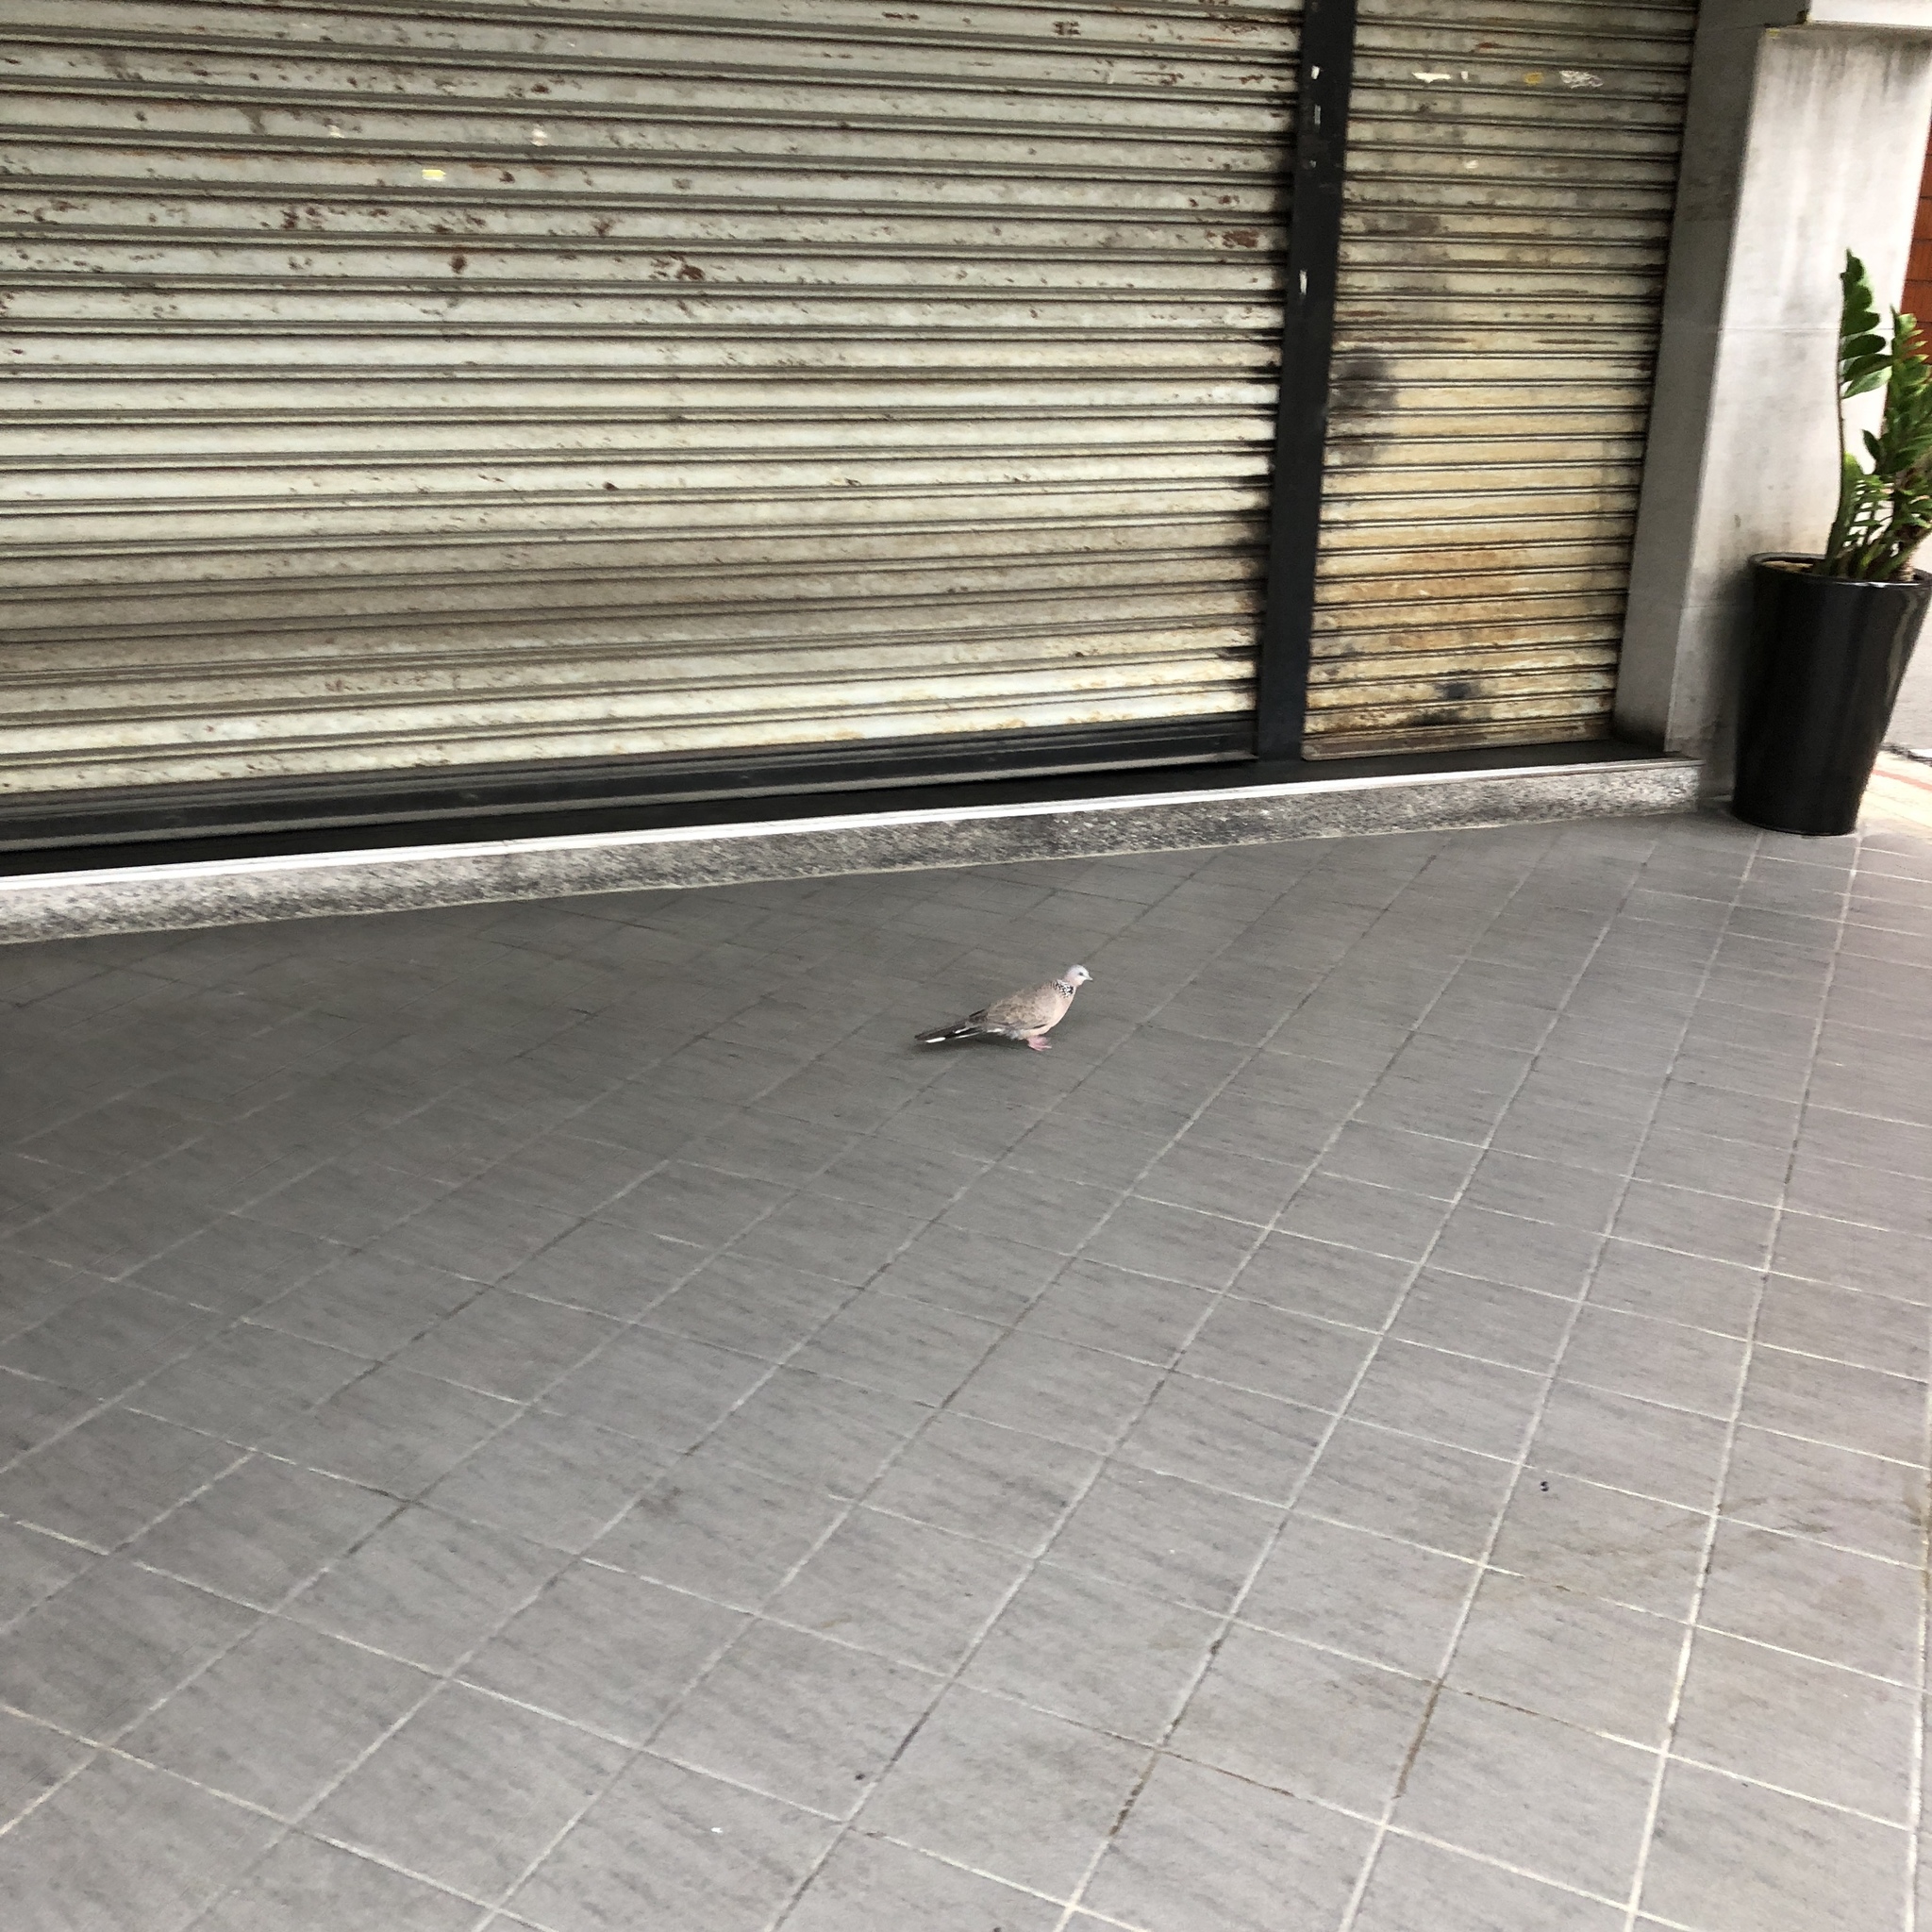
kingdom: Animalia
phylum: Chordata
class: Aves
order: Columbiformes
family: Columbidae
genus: Spilopelia
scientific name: Spilopelia chinensis
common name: Spotted dove
